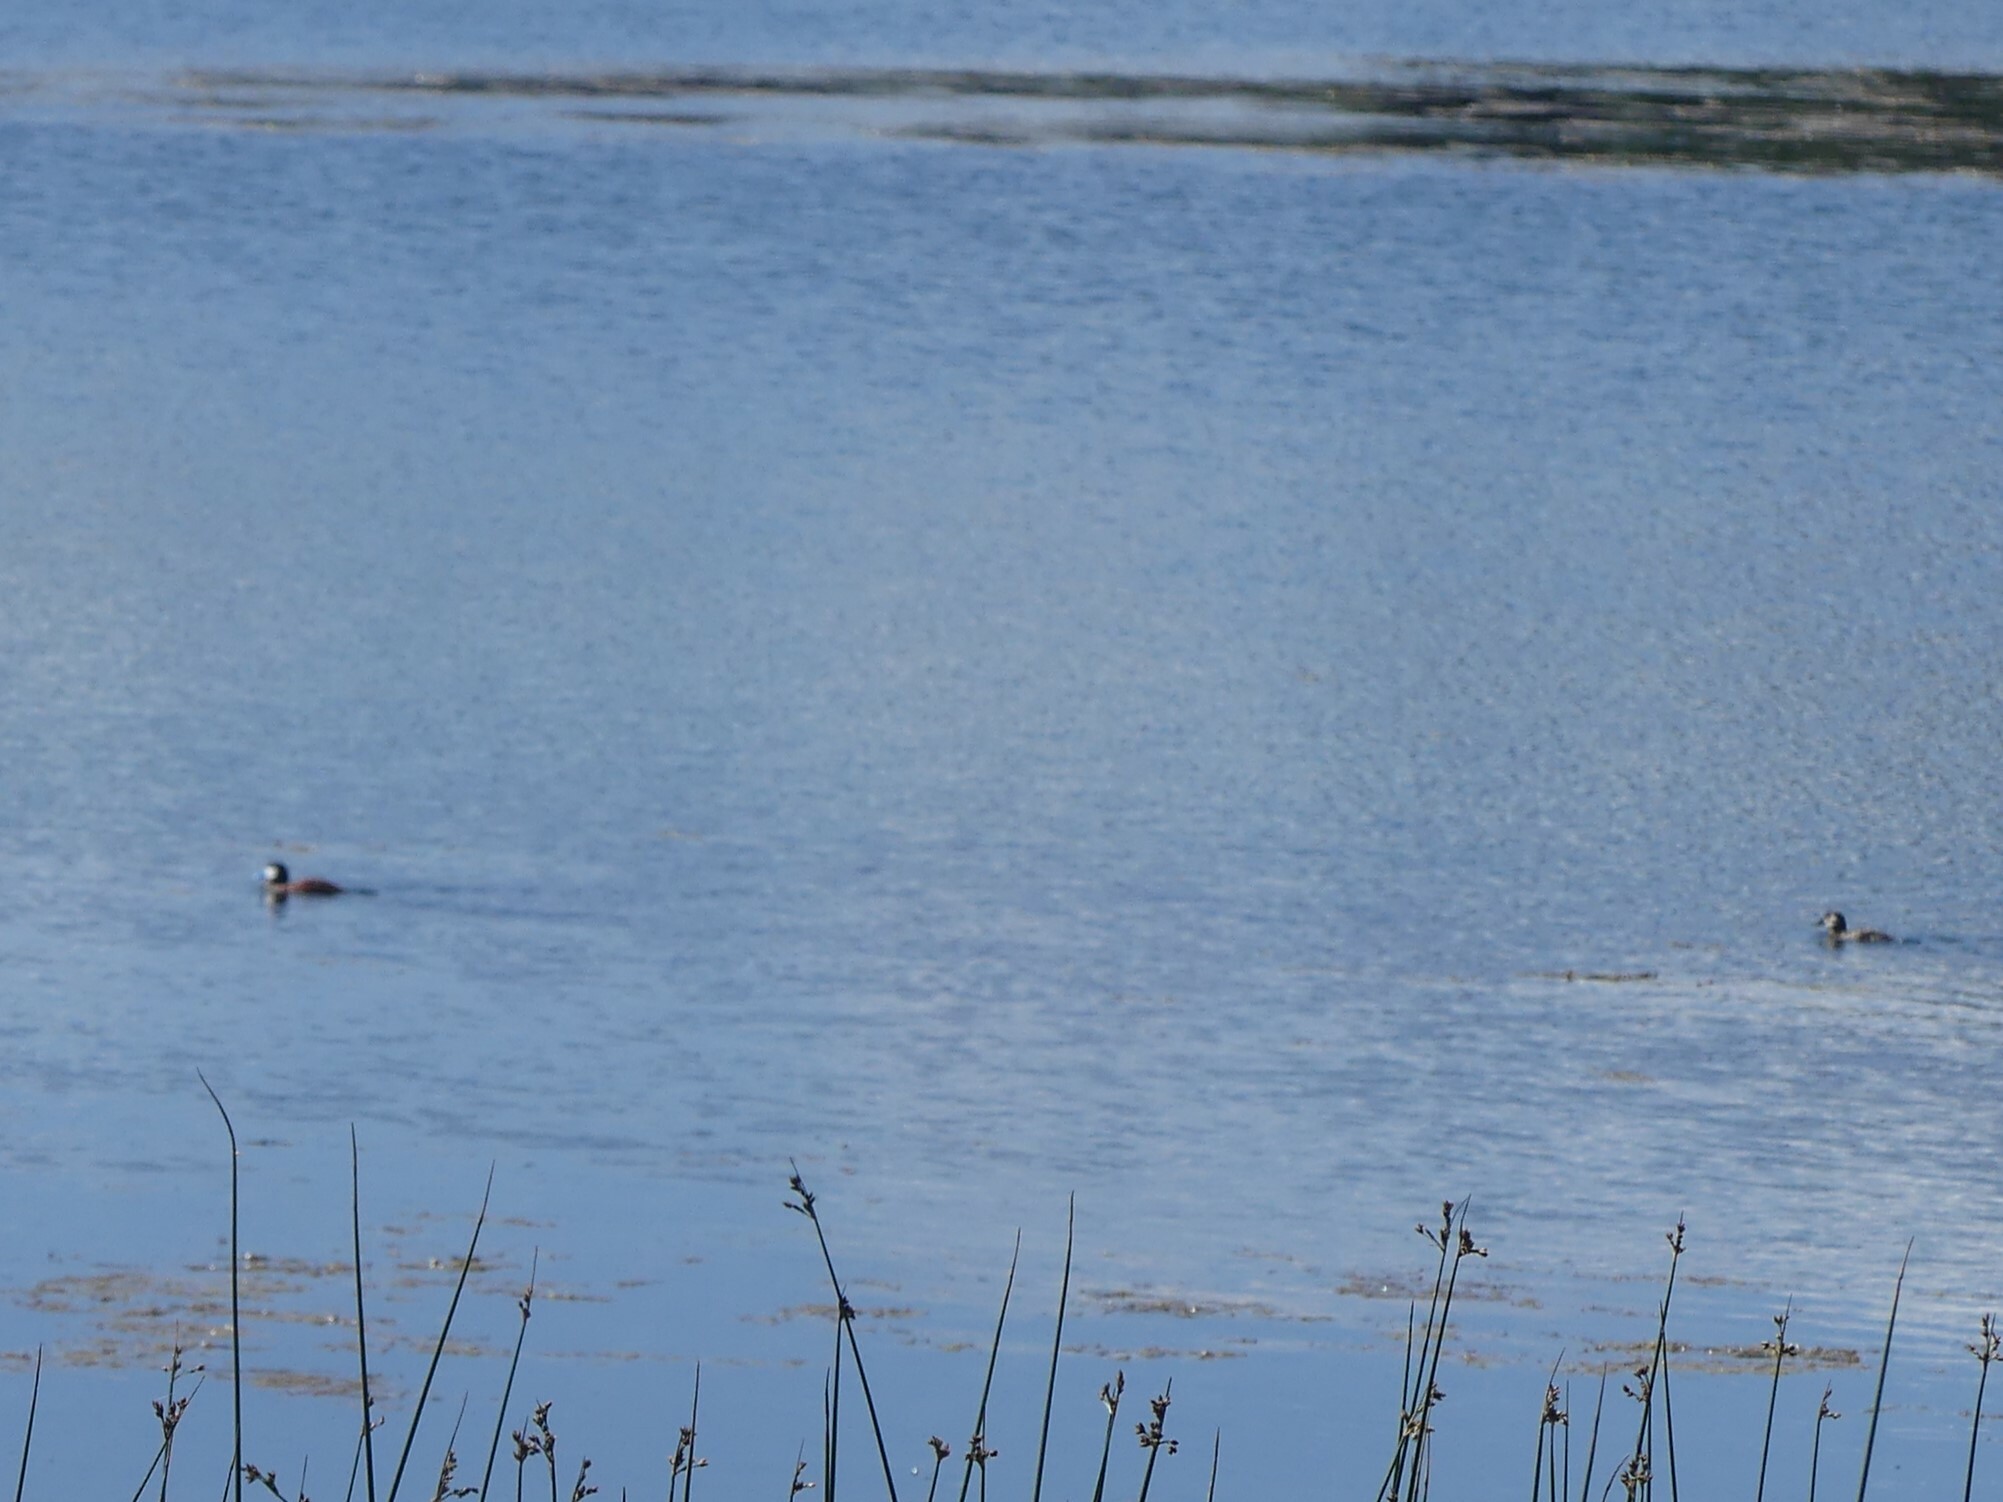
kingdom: Animalia
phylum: Chordata
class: Aves
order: Anseriformes
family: Anatidae
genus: Oxyura
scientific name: Oxyura jamaicensis
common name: Ruddy duck
